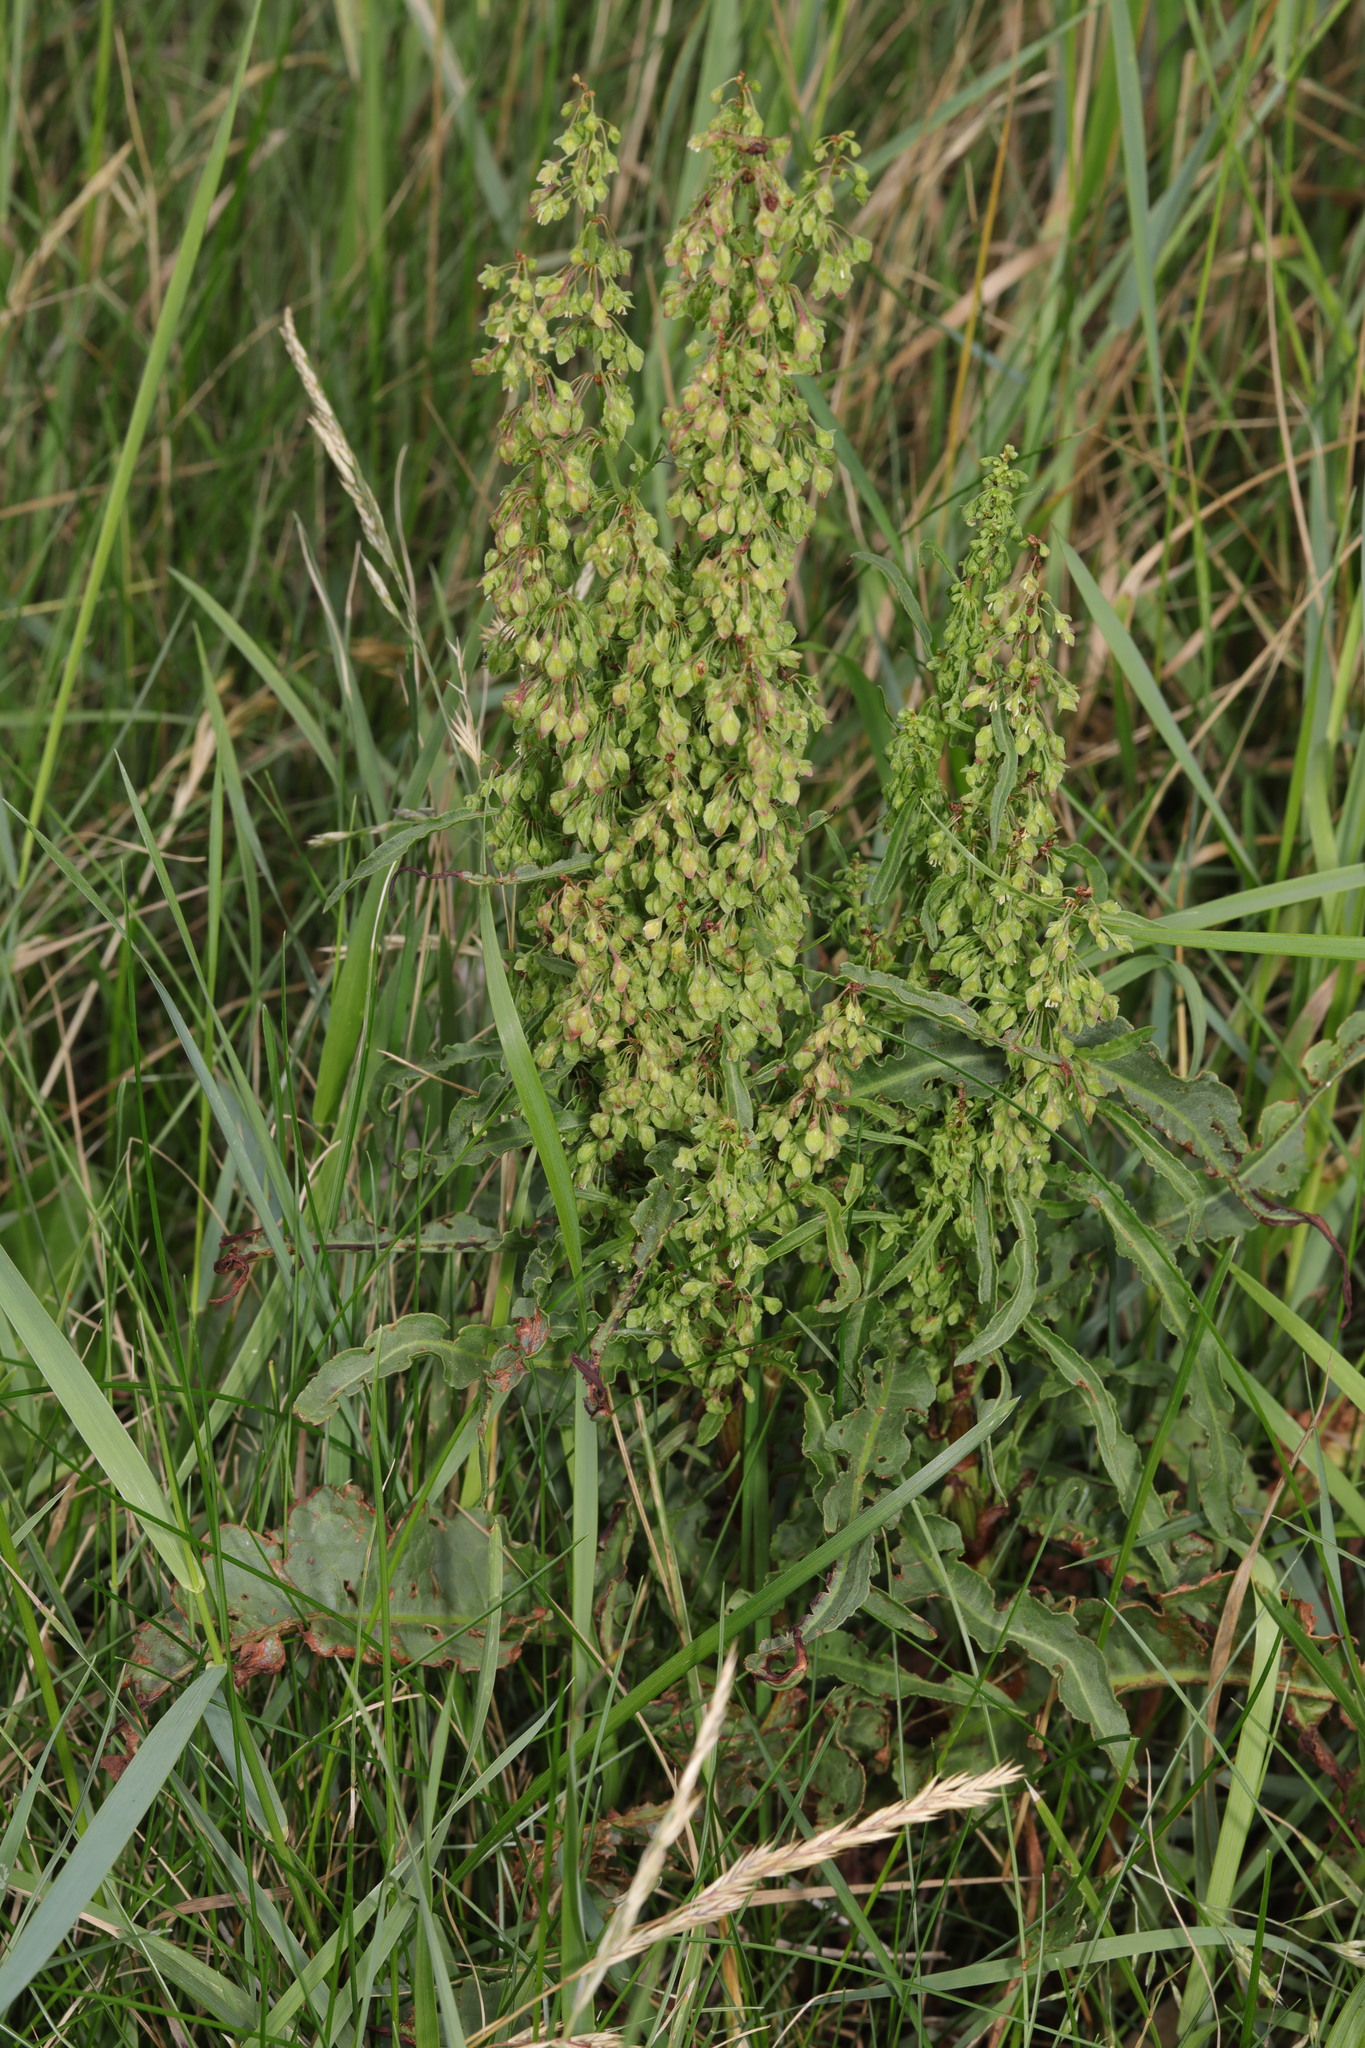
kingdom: Plantae
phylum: Tracheophyta
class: Magnoliopsida
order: Caryophyllales
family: Polygonaceae
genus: Rumex
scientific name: Rumex crispus
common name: Curled dock
